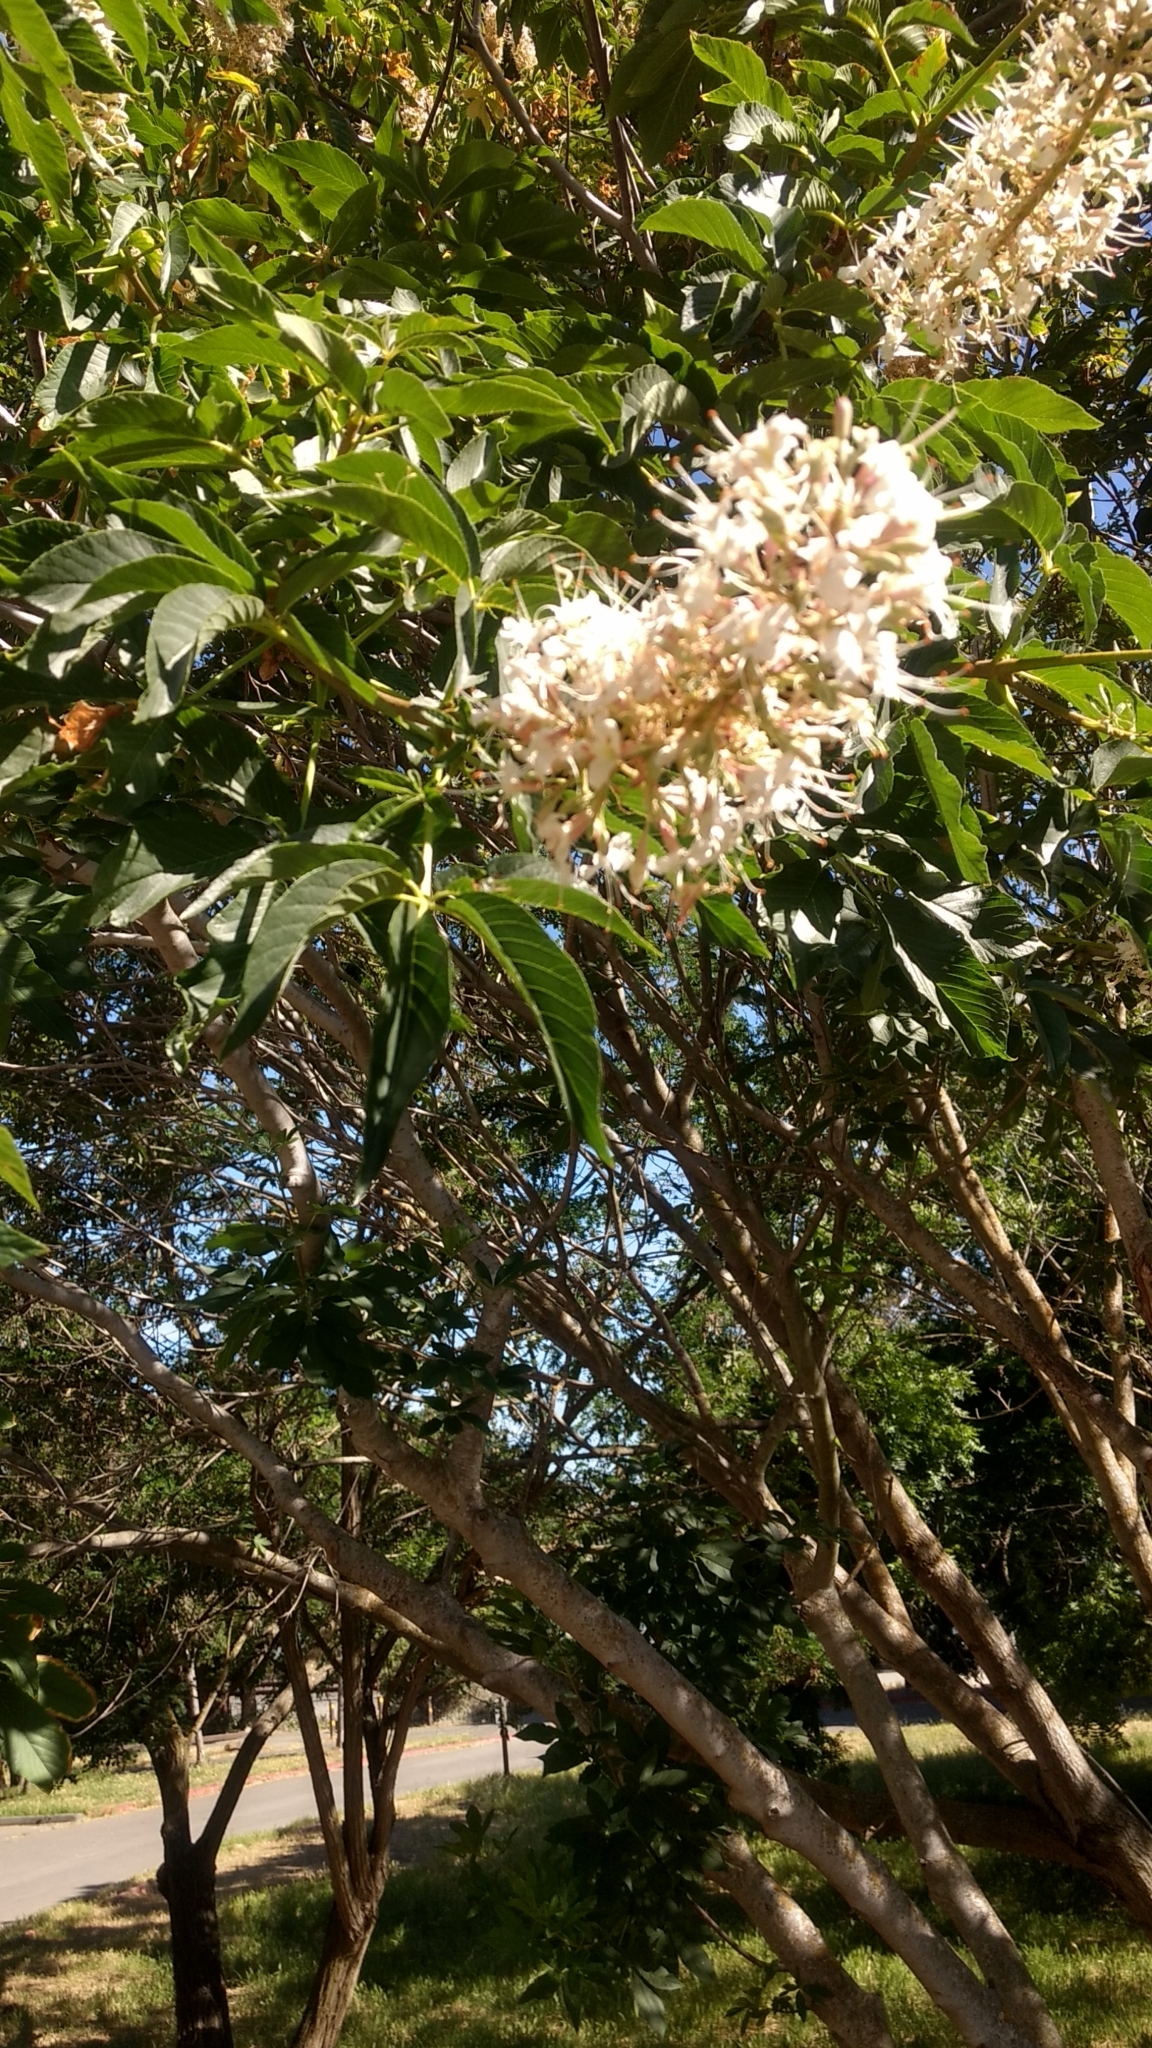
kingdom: Plantae
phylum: Tracheophyta
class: Magnoliopsida
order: Sapindales
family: Sapindaceae
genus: Aesculus
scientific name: Aesculus californica
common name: California buckeye
